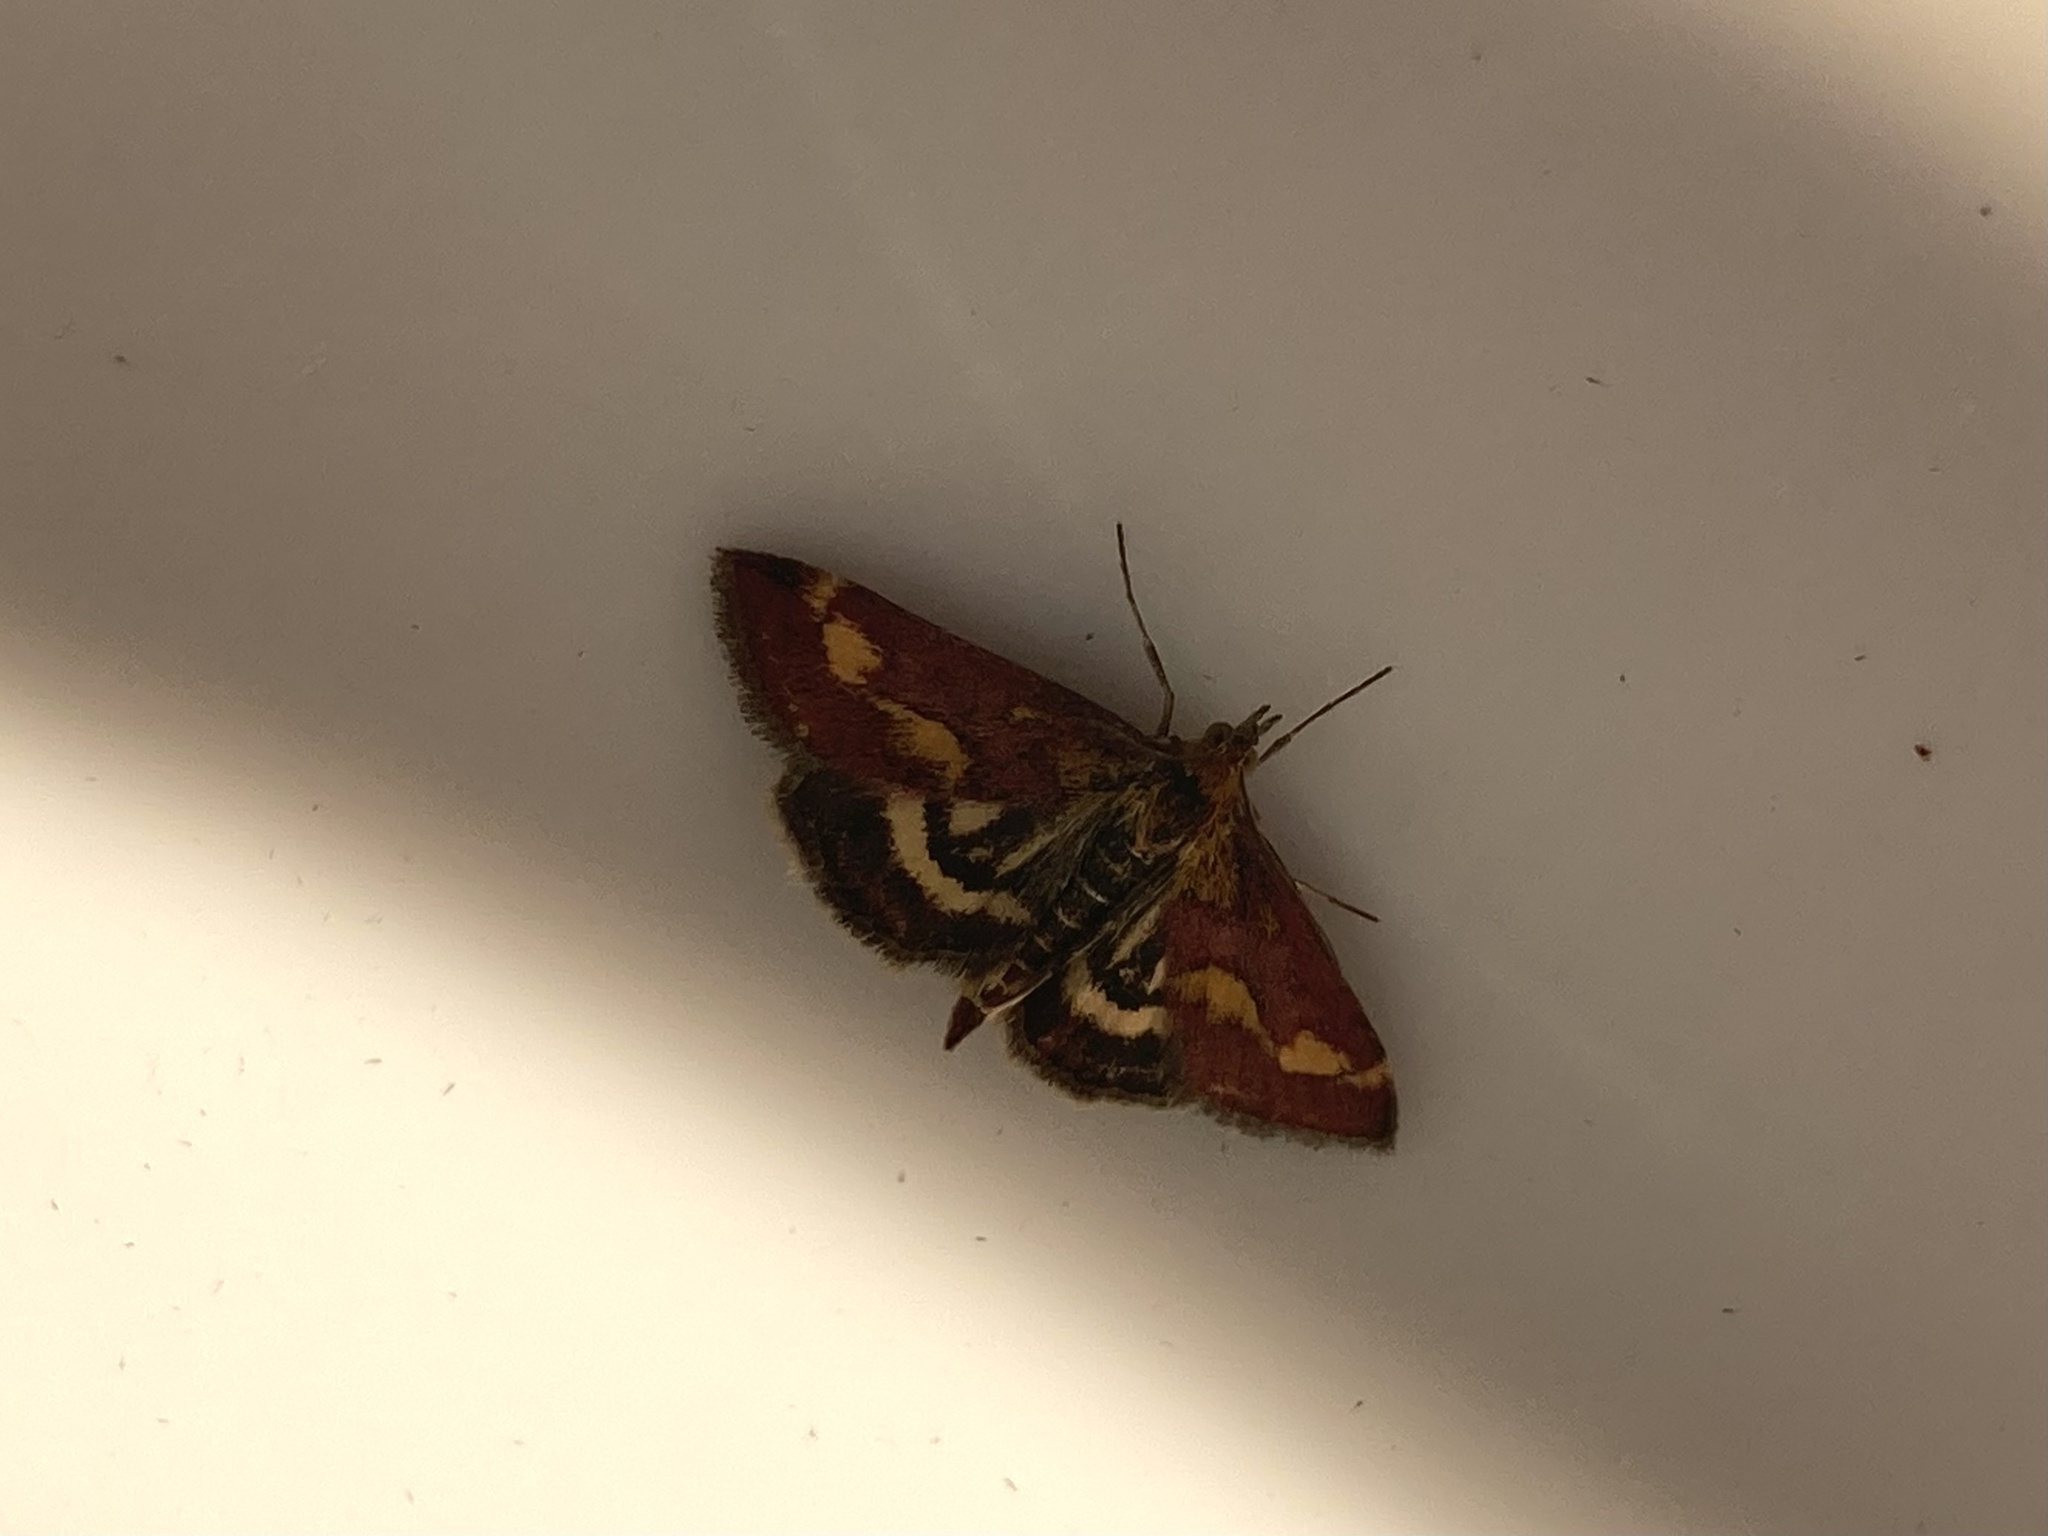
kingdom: Animalia
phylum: Arthropoda
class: Insecta
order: Lepidoptera
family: Crambidae
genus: Pyrausta
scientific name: Pyrausta purpuralis
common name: Common purple & gold
